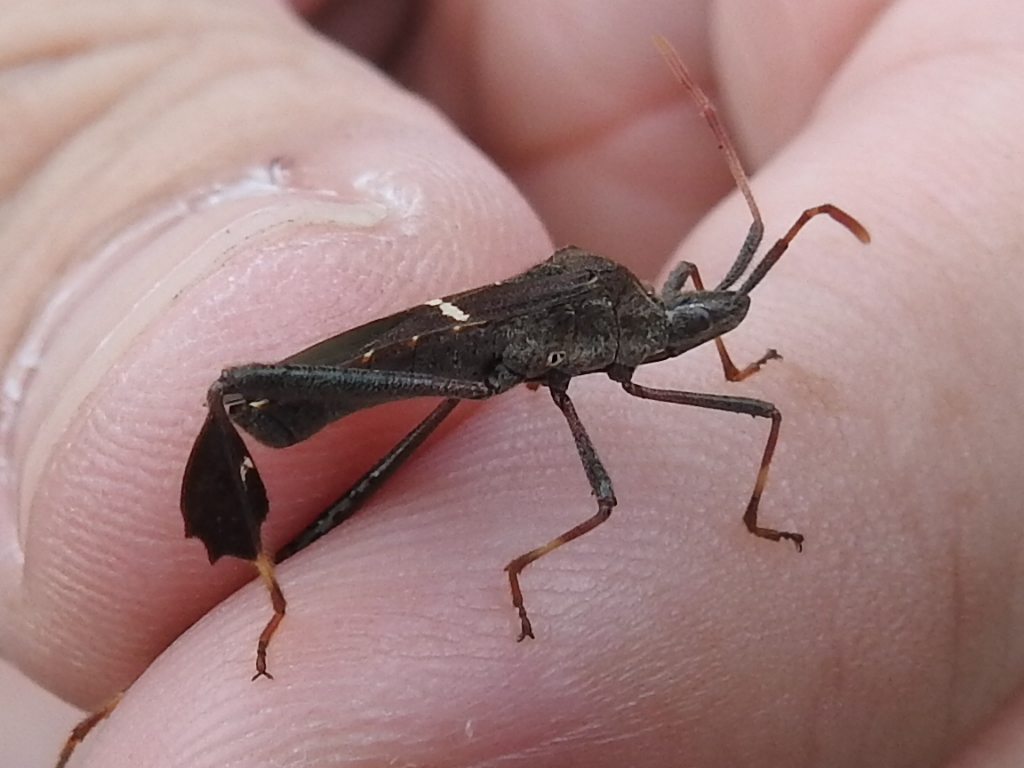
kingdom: Animalia
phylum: Arthropoda
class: Insecta
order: Hemiptera
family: Coreidae
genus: Leptoglossus
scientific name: Leptoglossus phyllopus
